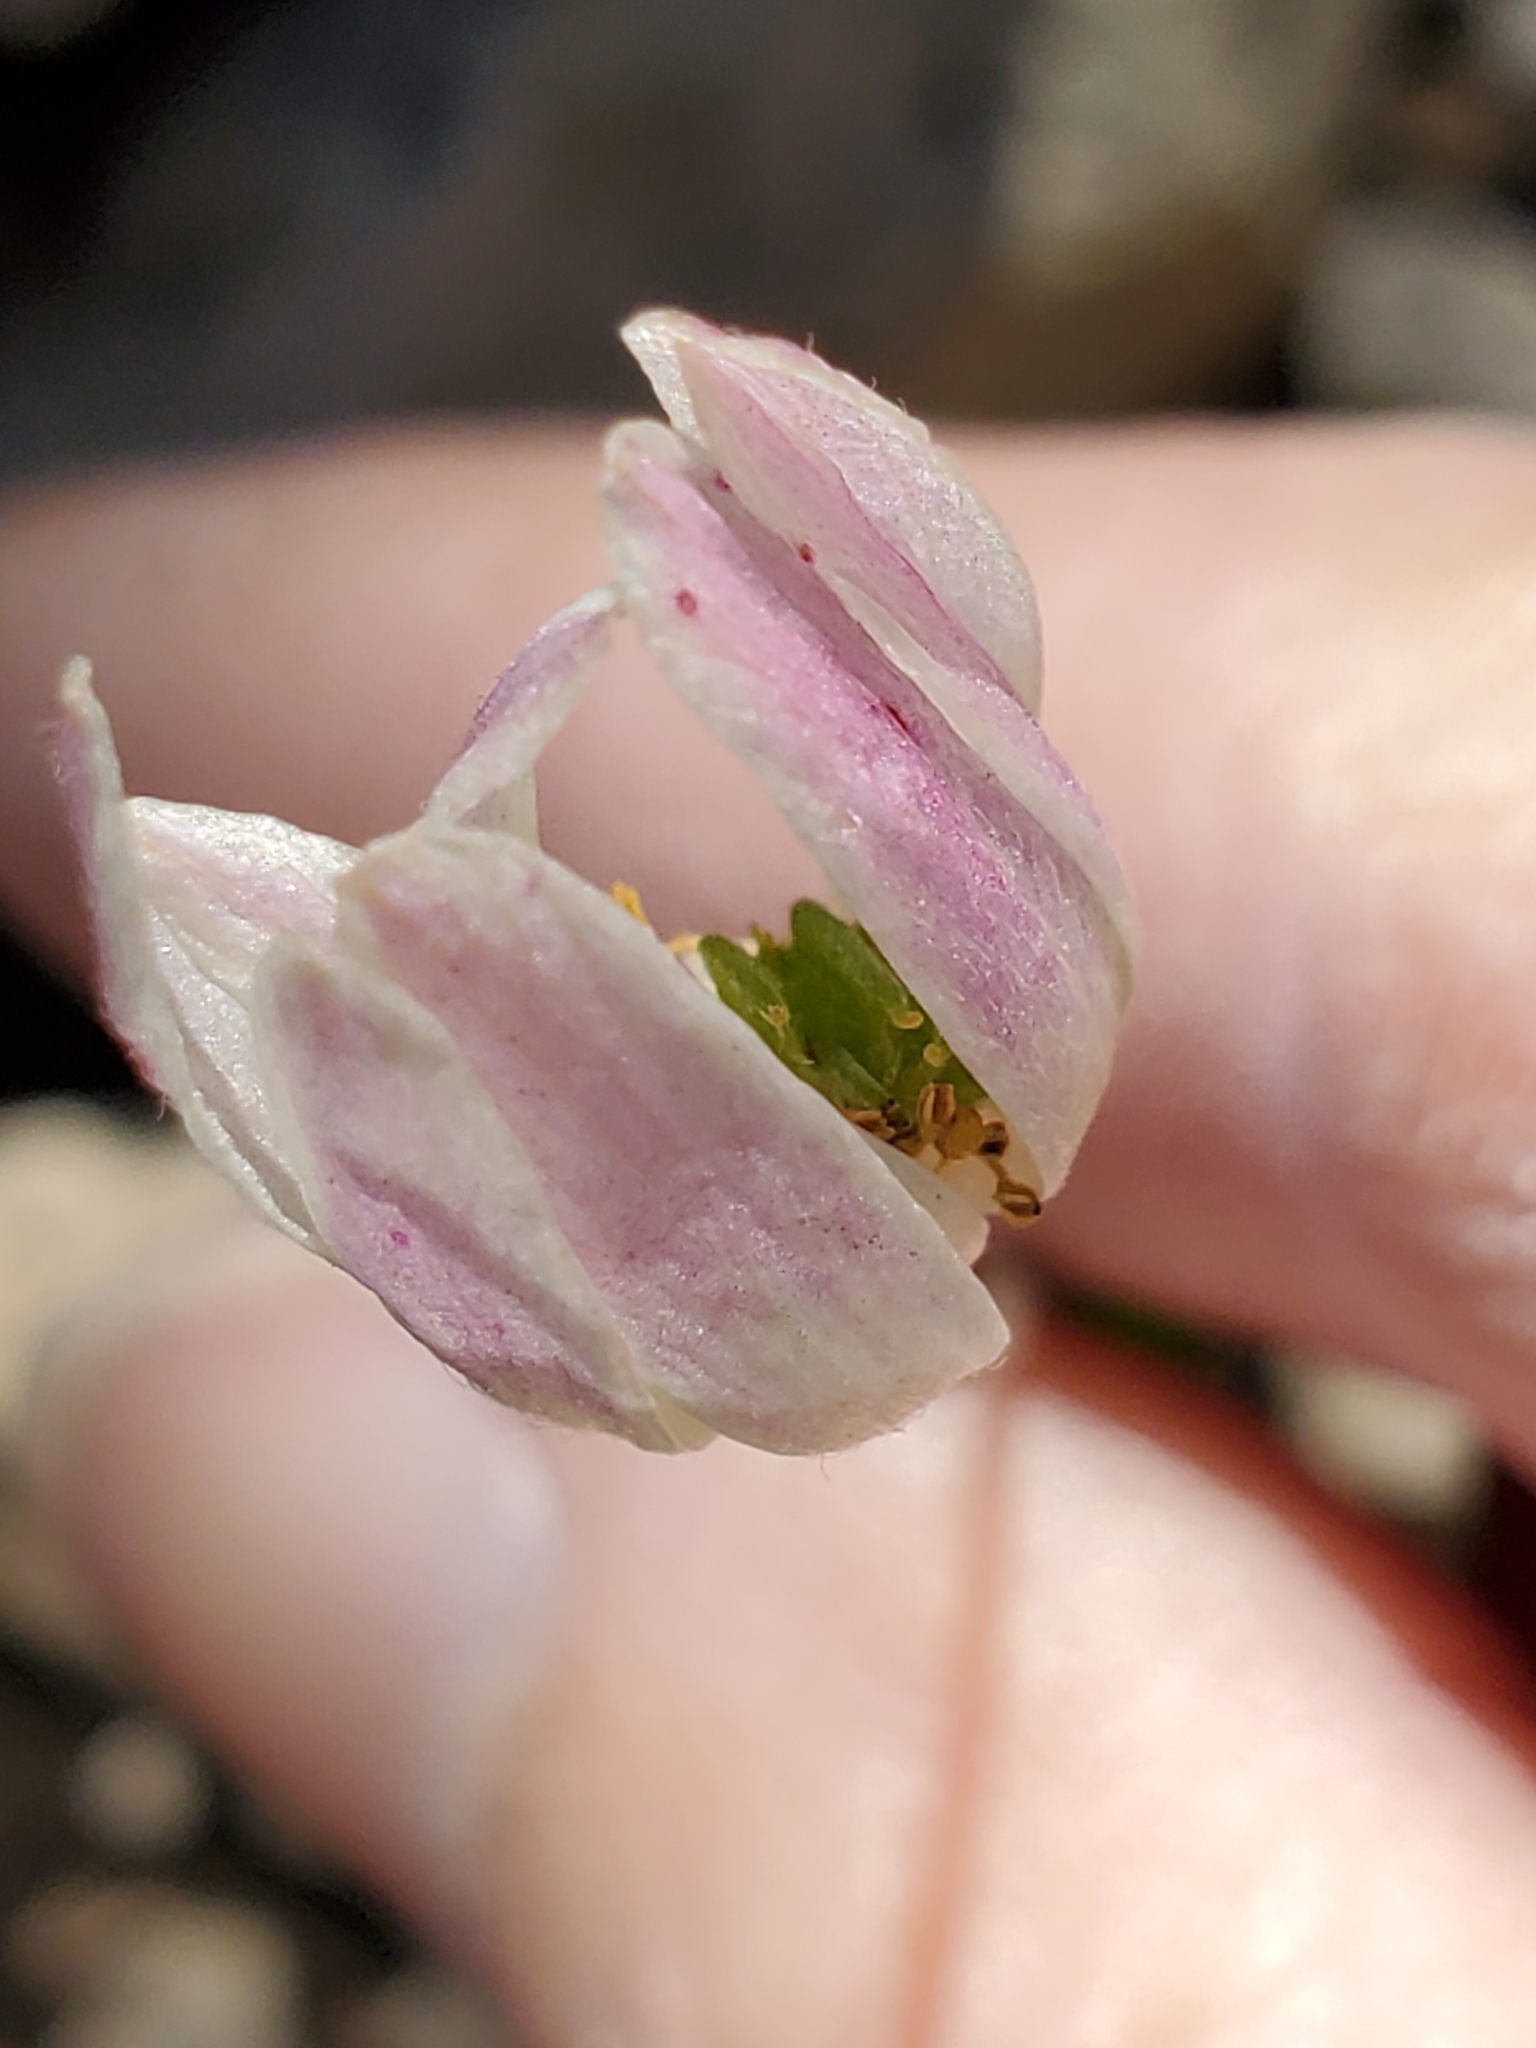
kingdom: Plantae
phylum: Tracheophyta
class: Magnoliopsida
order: Ranunculales
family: Ranunculaceae
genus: Anemone
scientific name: Anemone edwardsiana
